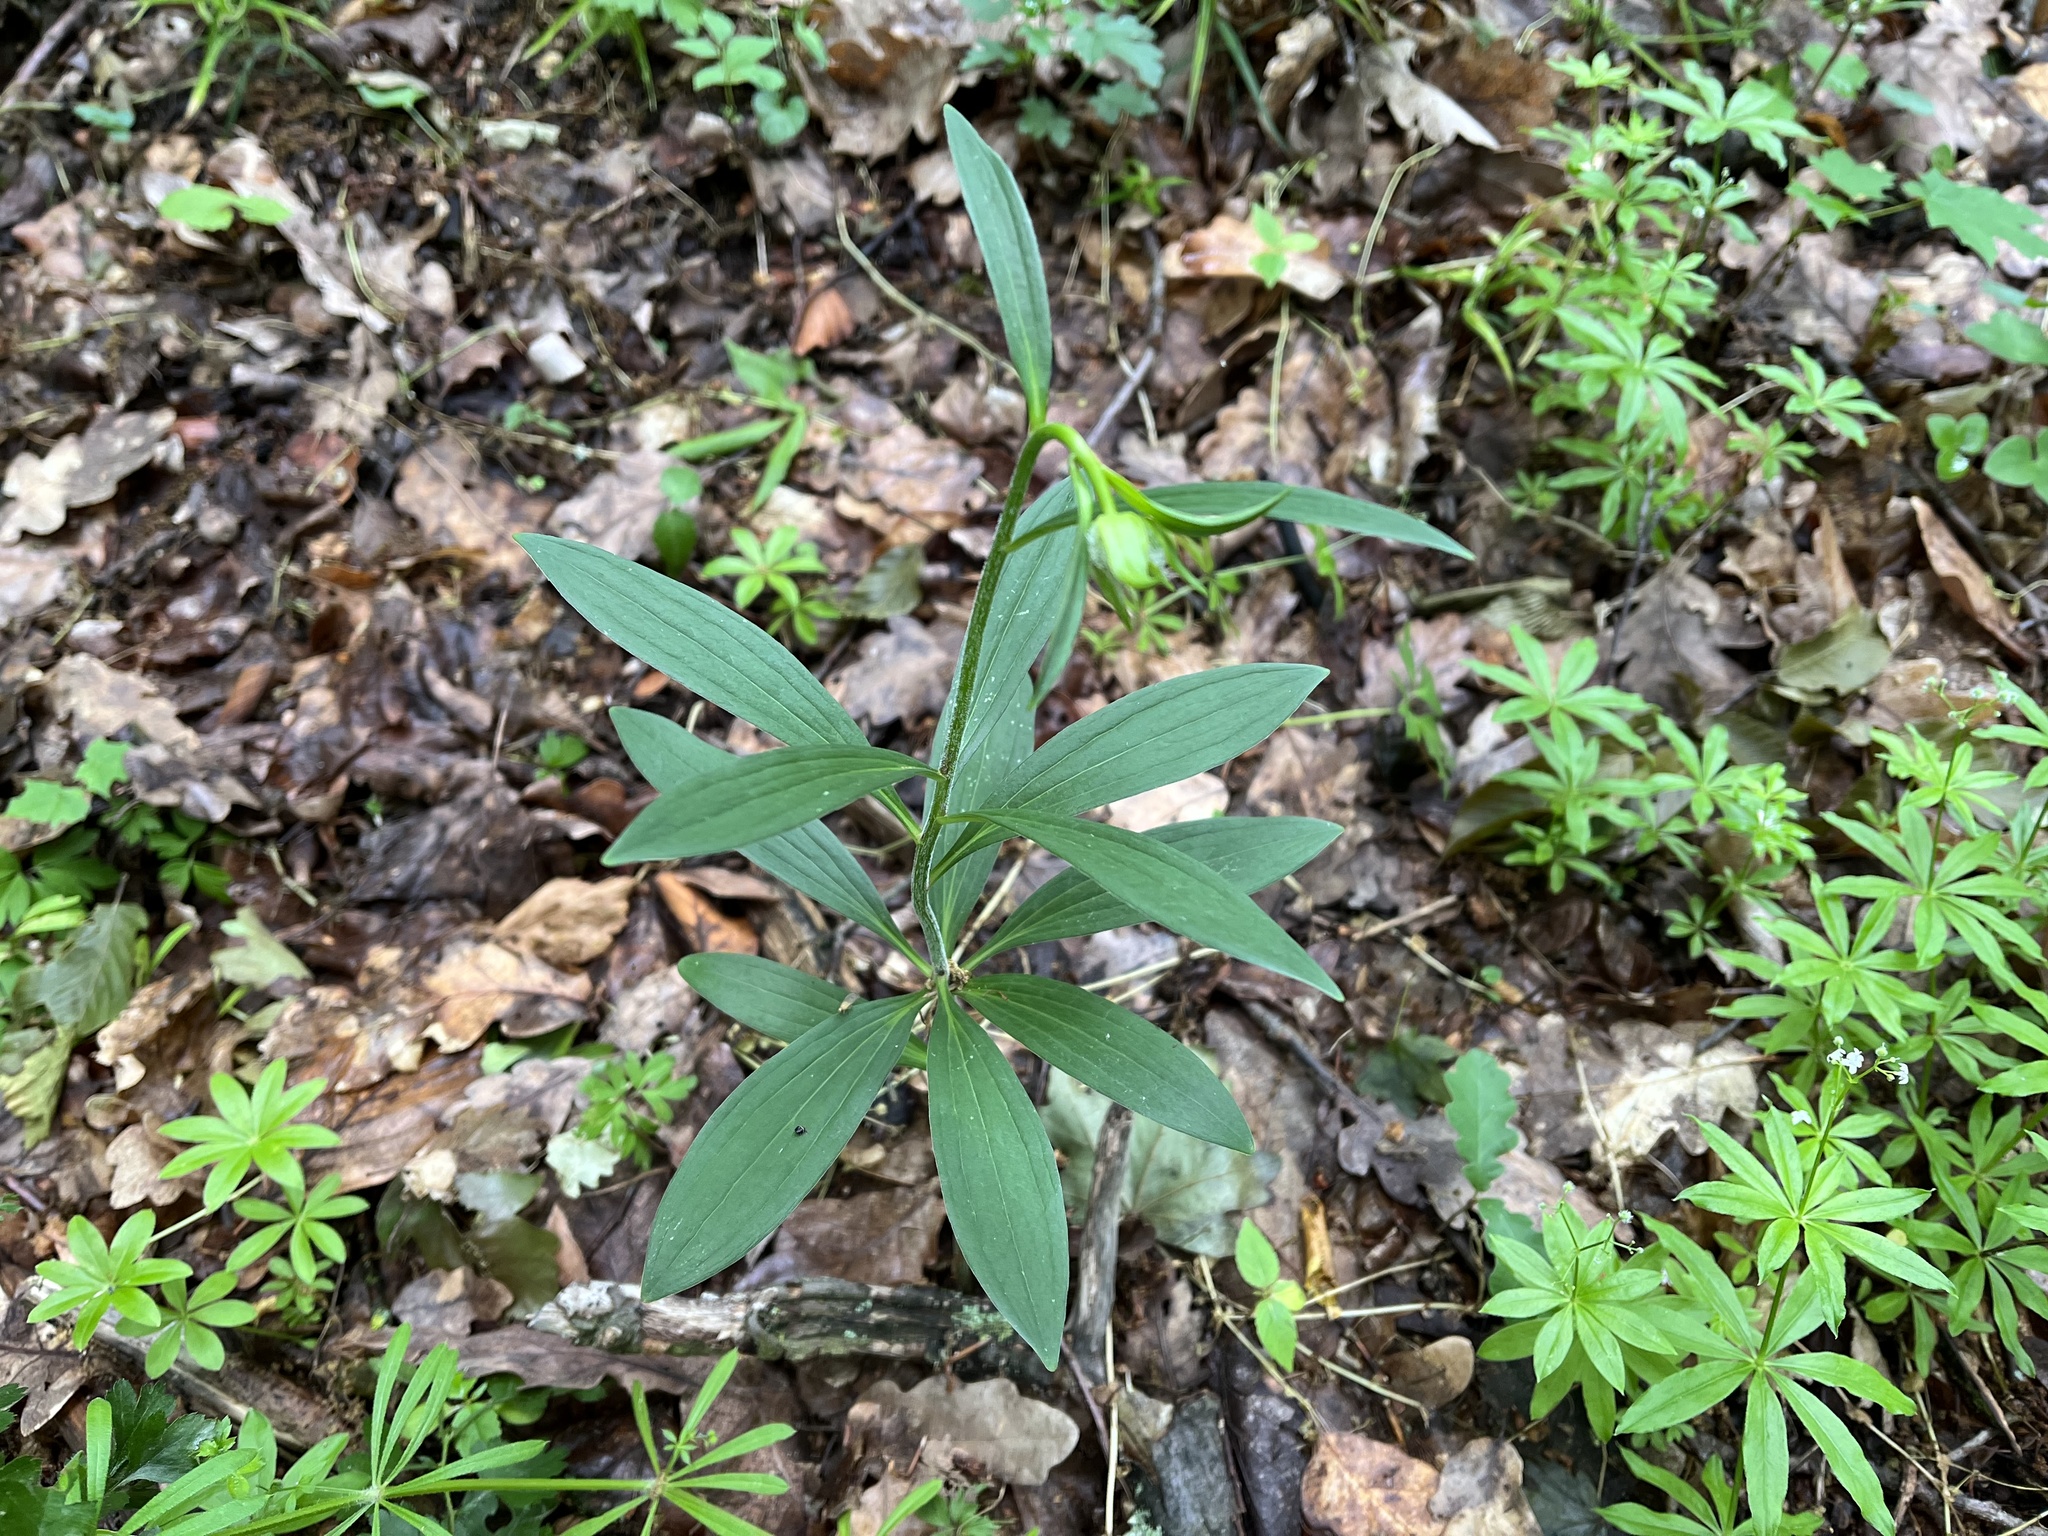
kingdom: Plantae
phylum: Tracheophyta
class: Liliopsida
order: Liliales
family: Liliaceae
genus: Lilium
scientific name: Lilium martagon
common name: Martagon lily
